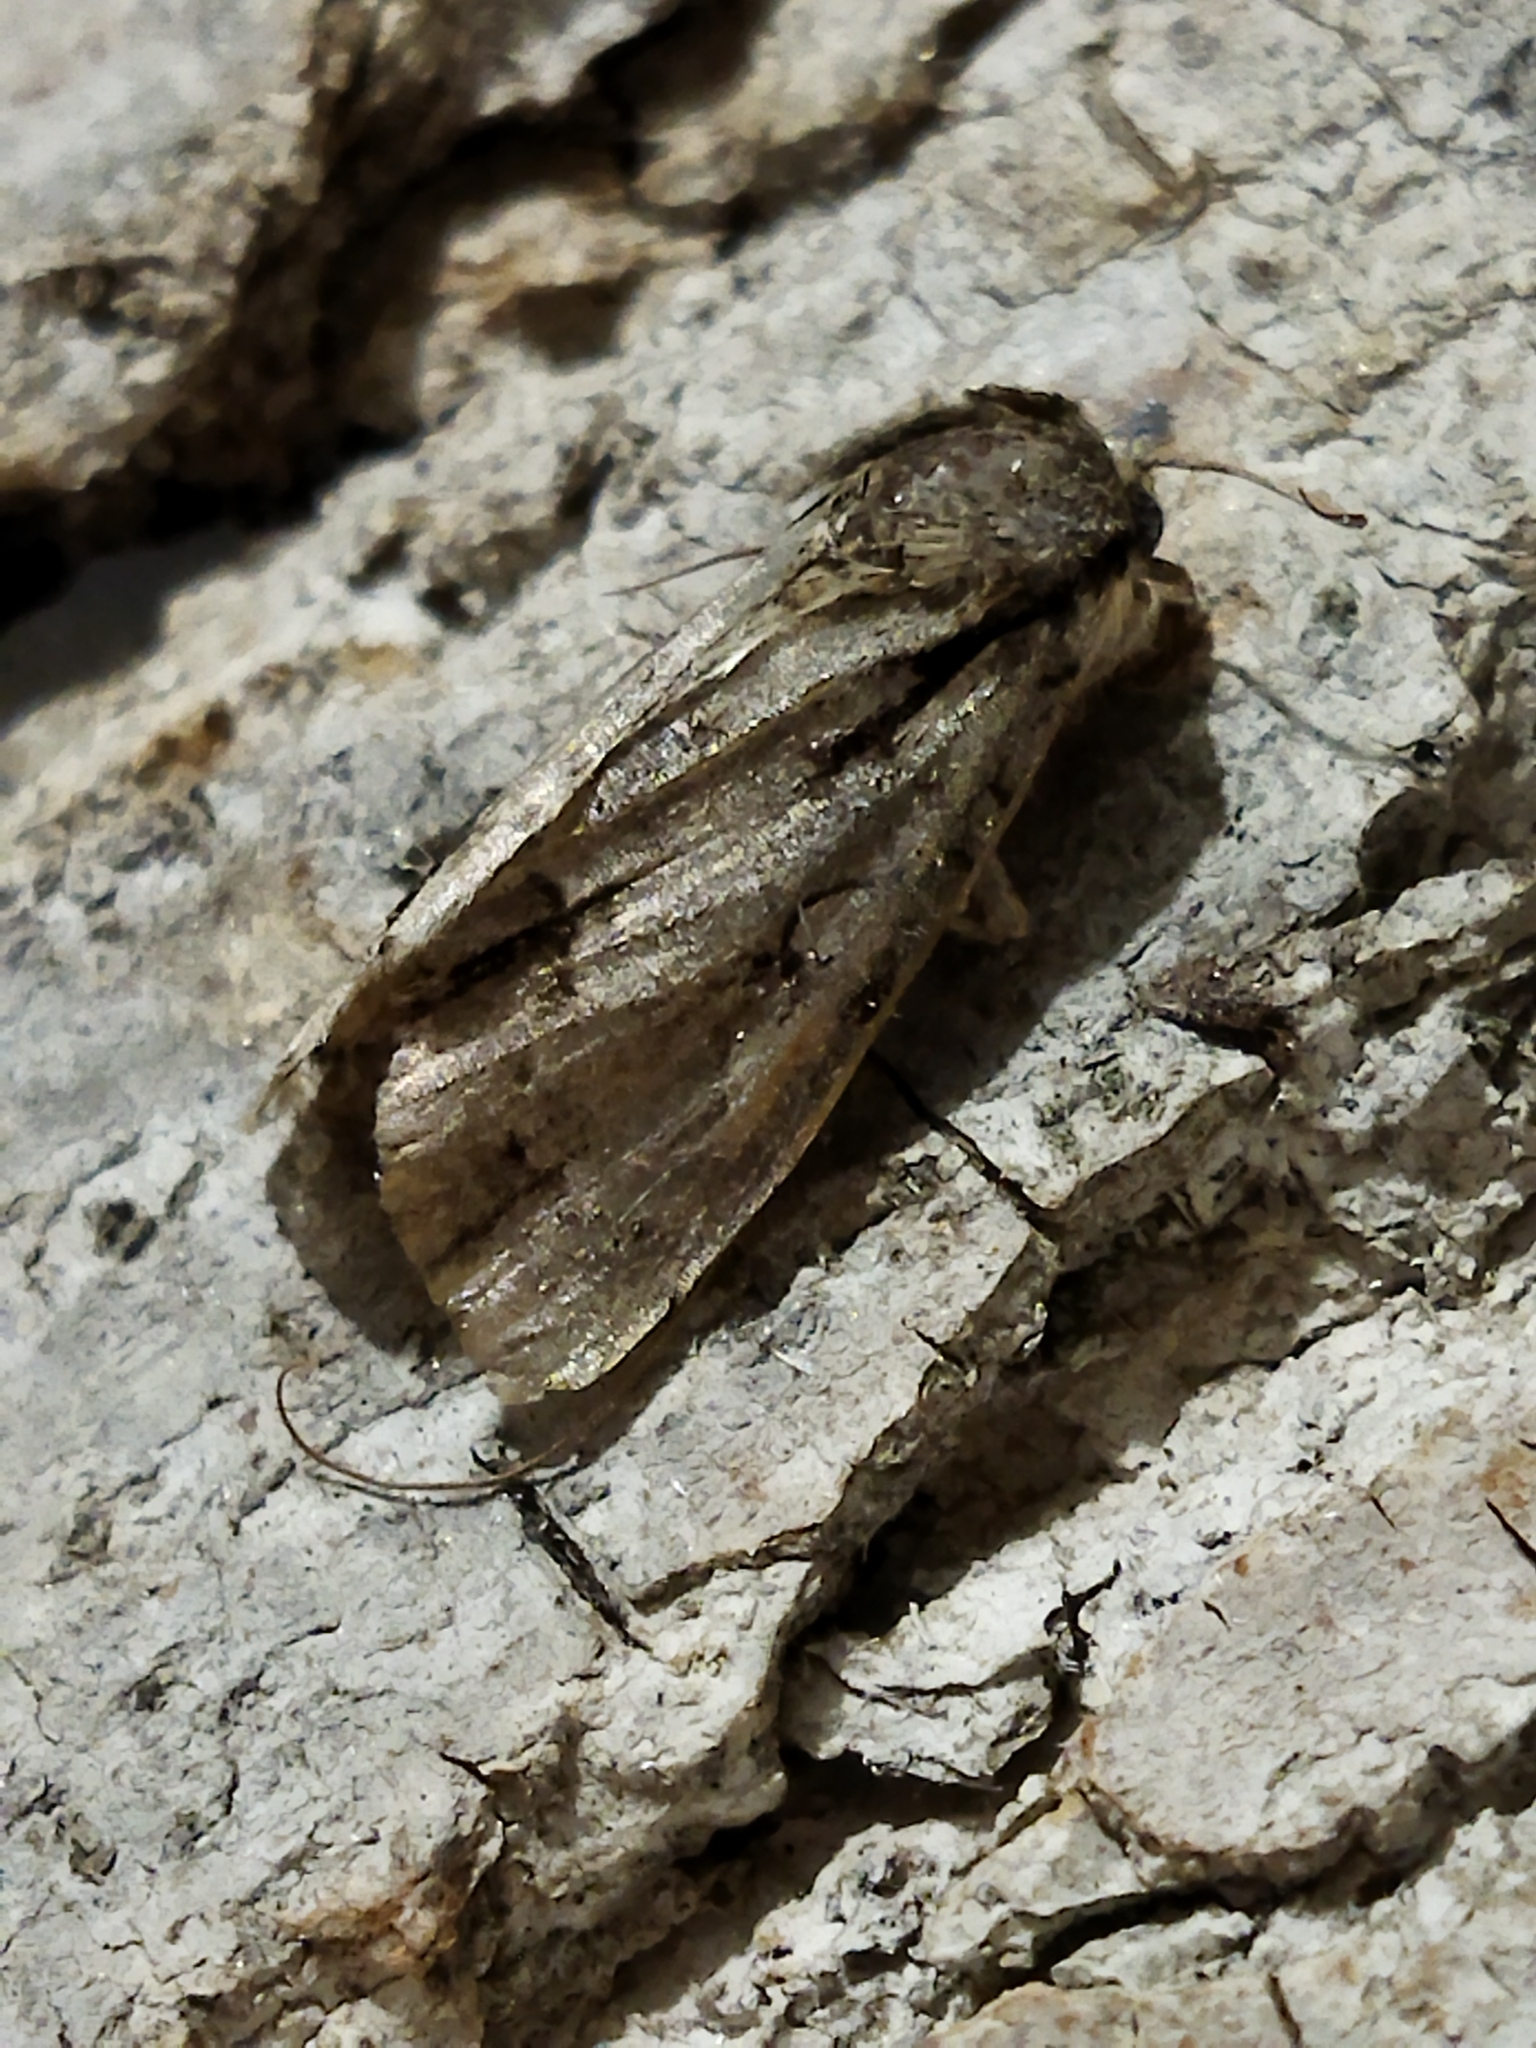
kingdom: Animalia
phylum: Arthropoda
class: Insecta
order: Lepidoptera
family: Noctuidae
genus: Acronicta
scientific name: Acronicta
